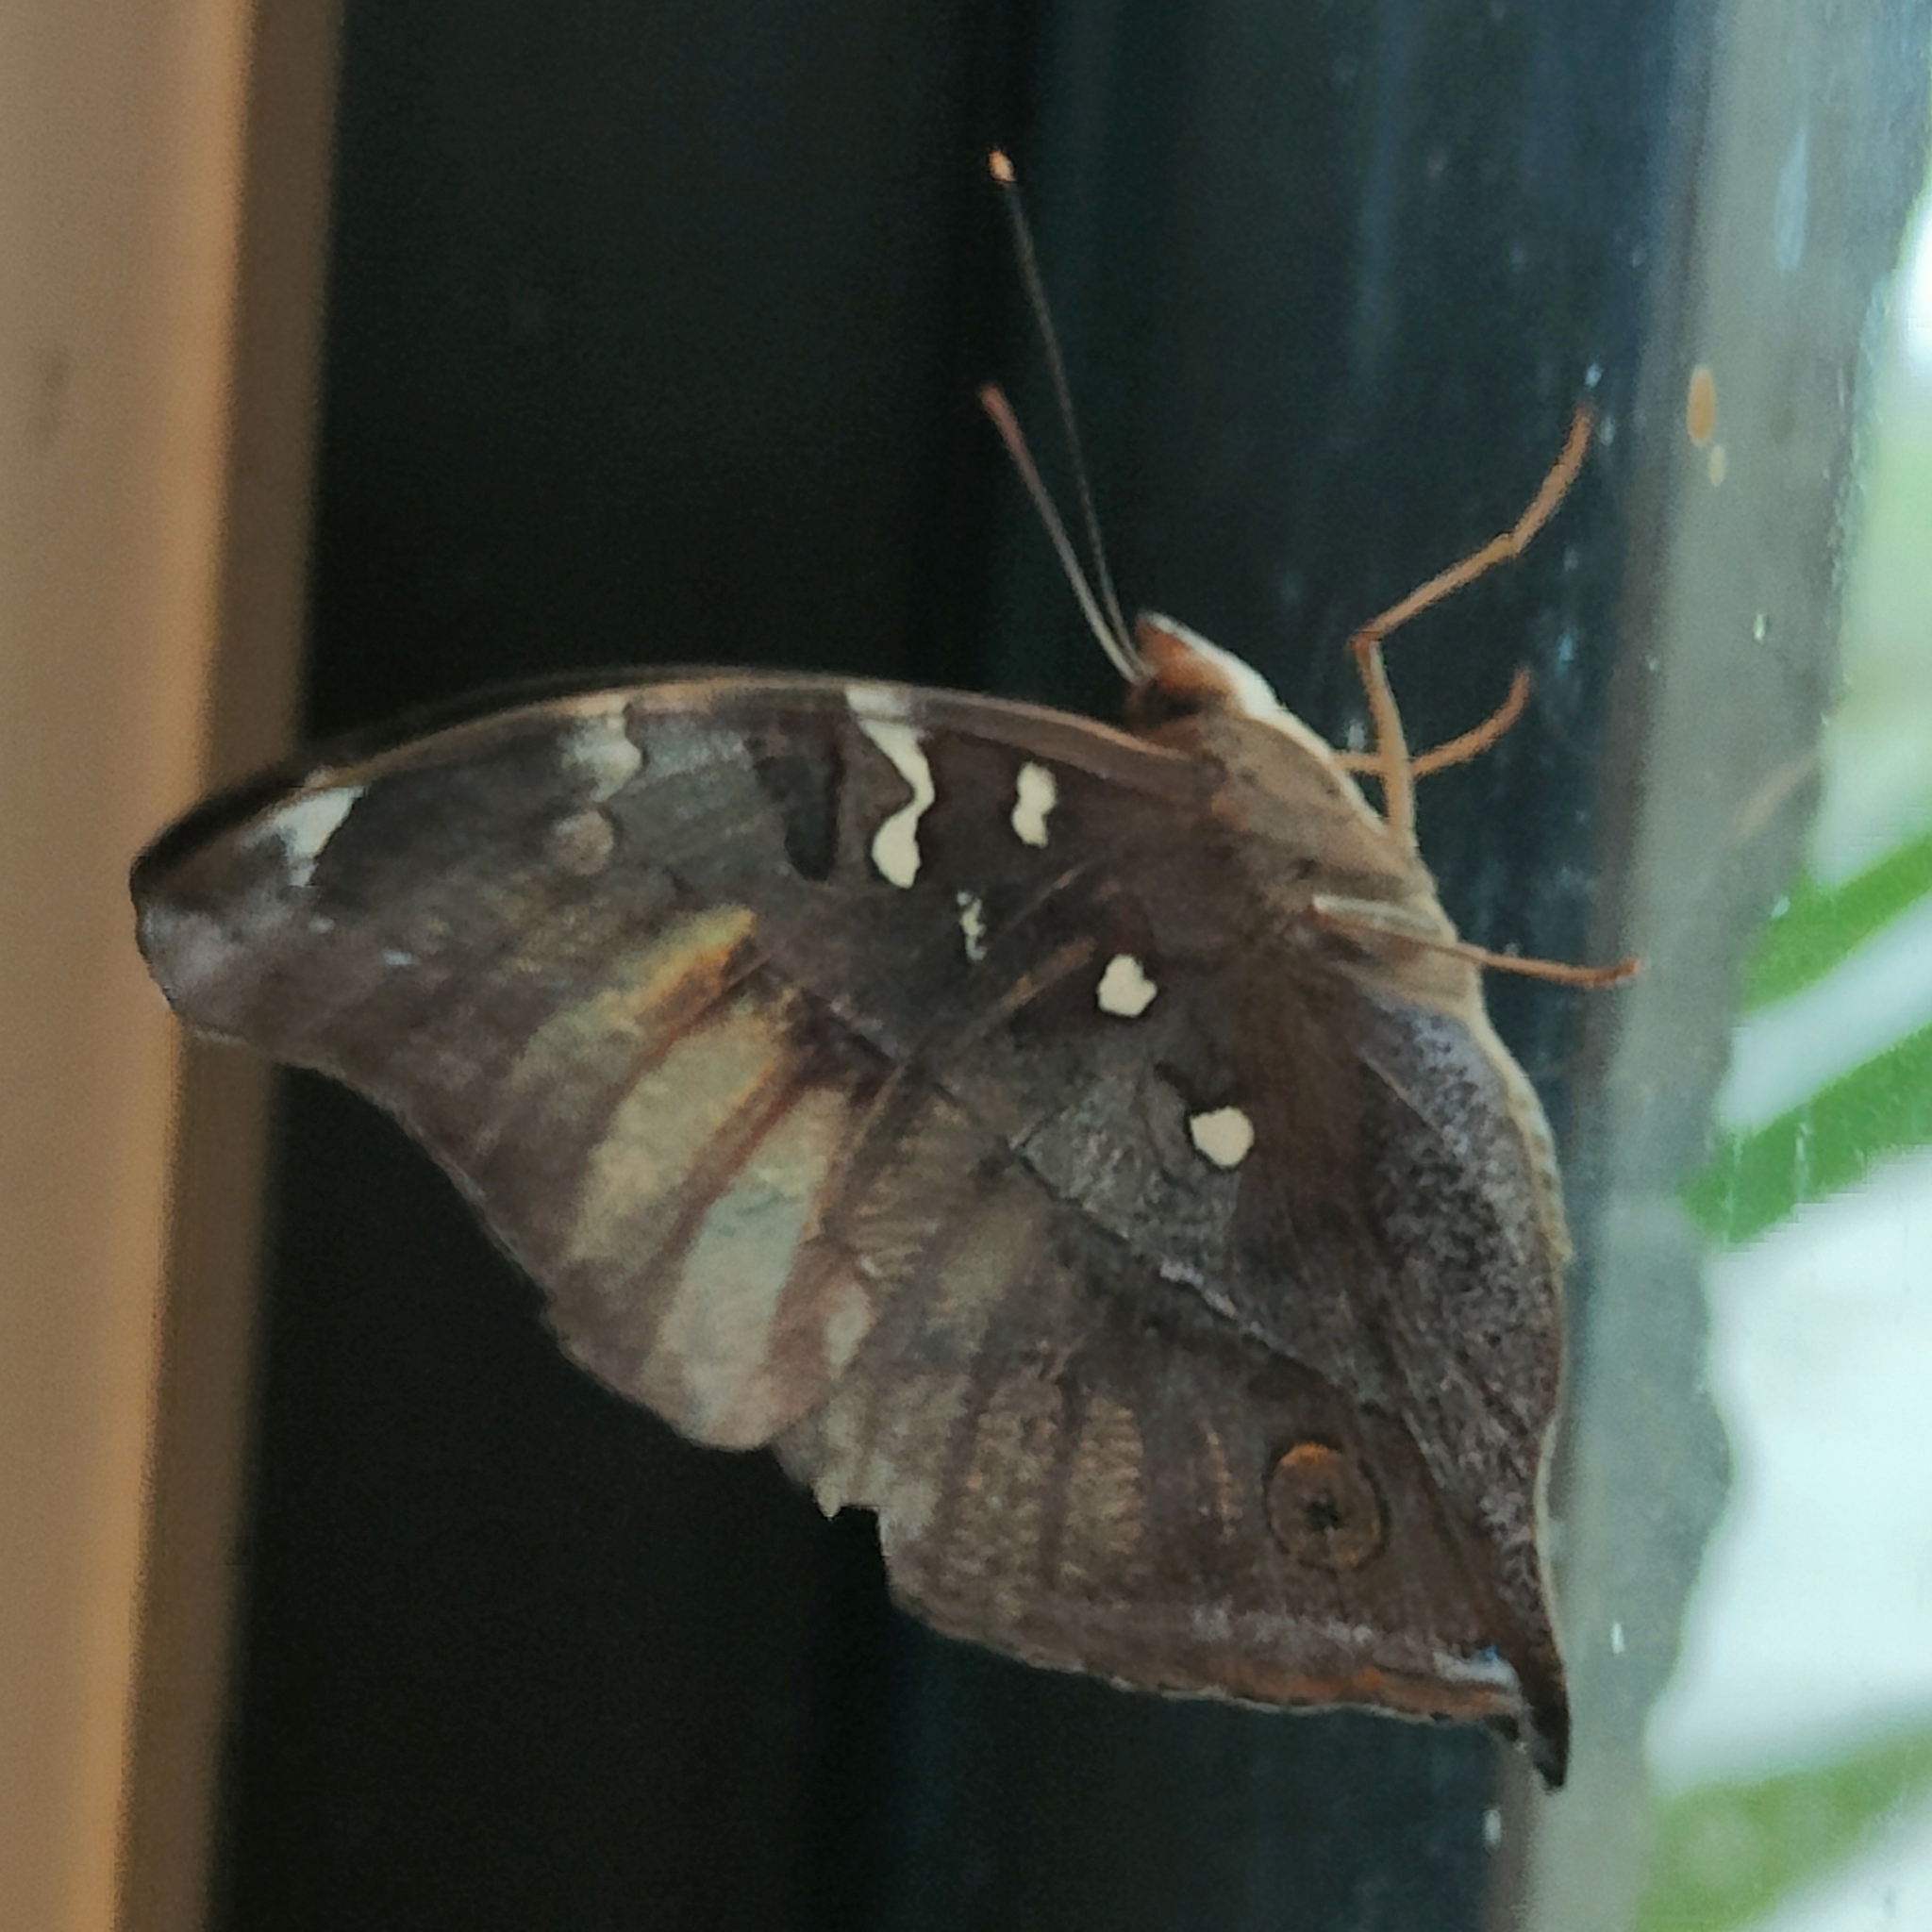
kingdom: Animalia
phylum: Arthropoda
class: Insecta
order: Lepidoptera
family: Nymphalidae
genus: Doleschallia
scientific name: Doleschallia bisaltide
